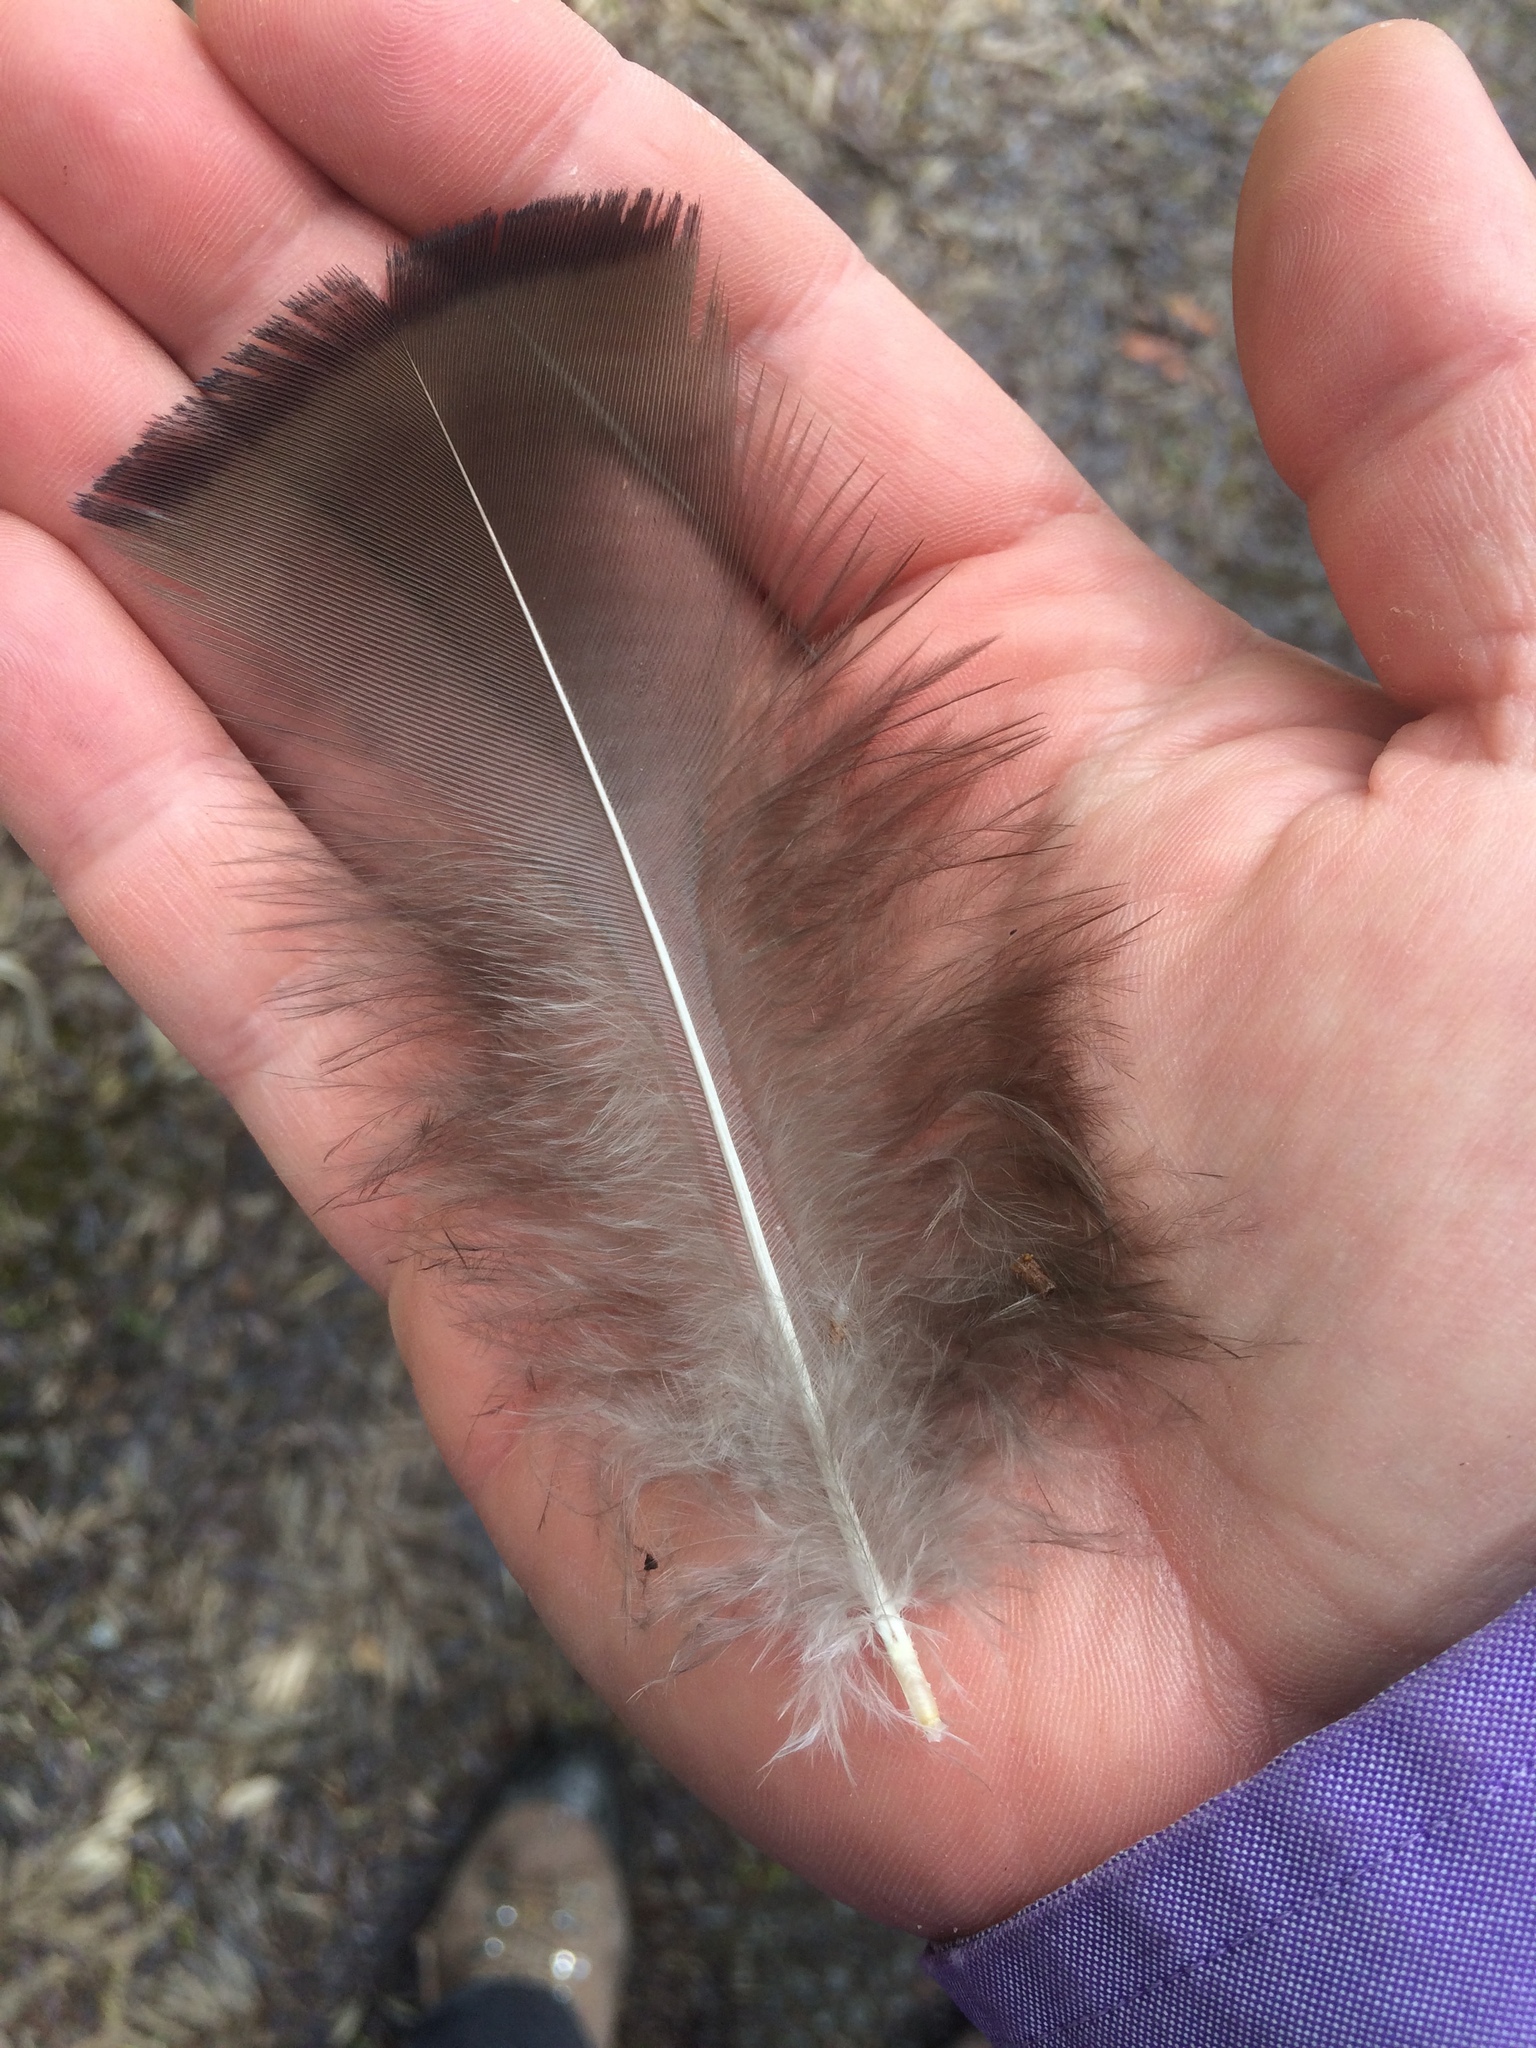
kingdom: Animalia
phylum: Chordata
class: Aves
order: Galliformes
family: Phasianidae
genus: Meleagris
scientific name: Meleagris gallopavo
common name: Wild turkey
